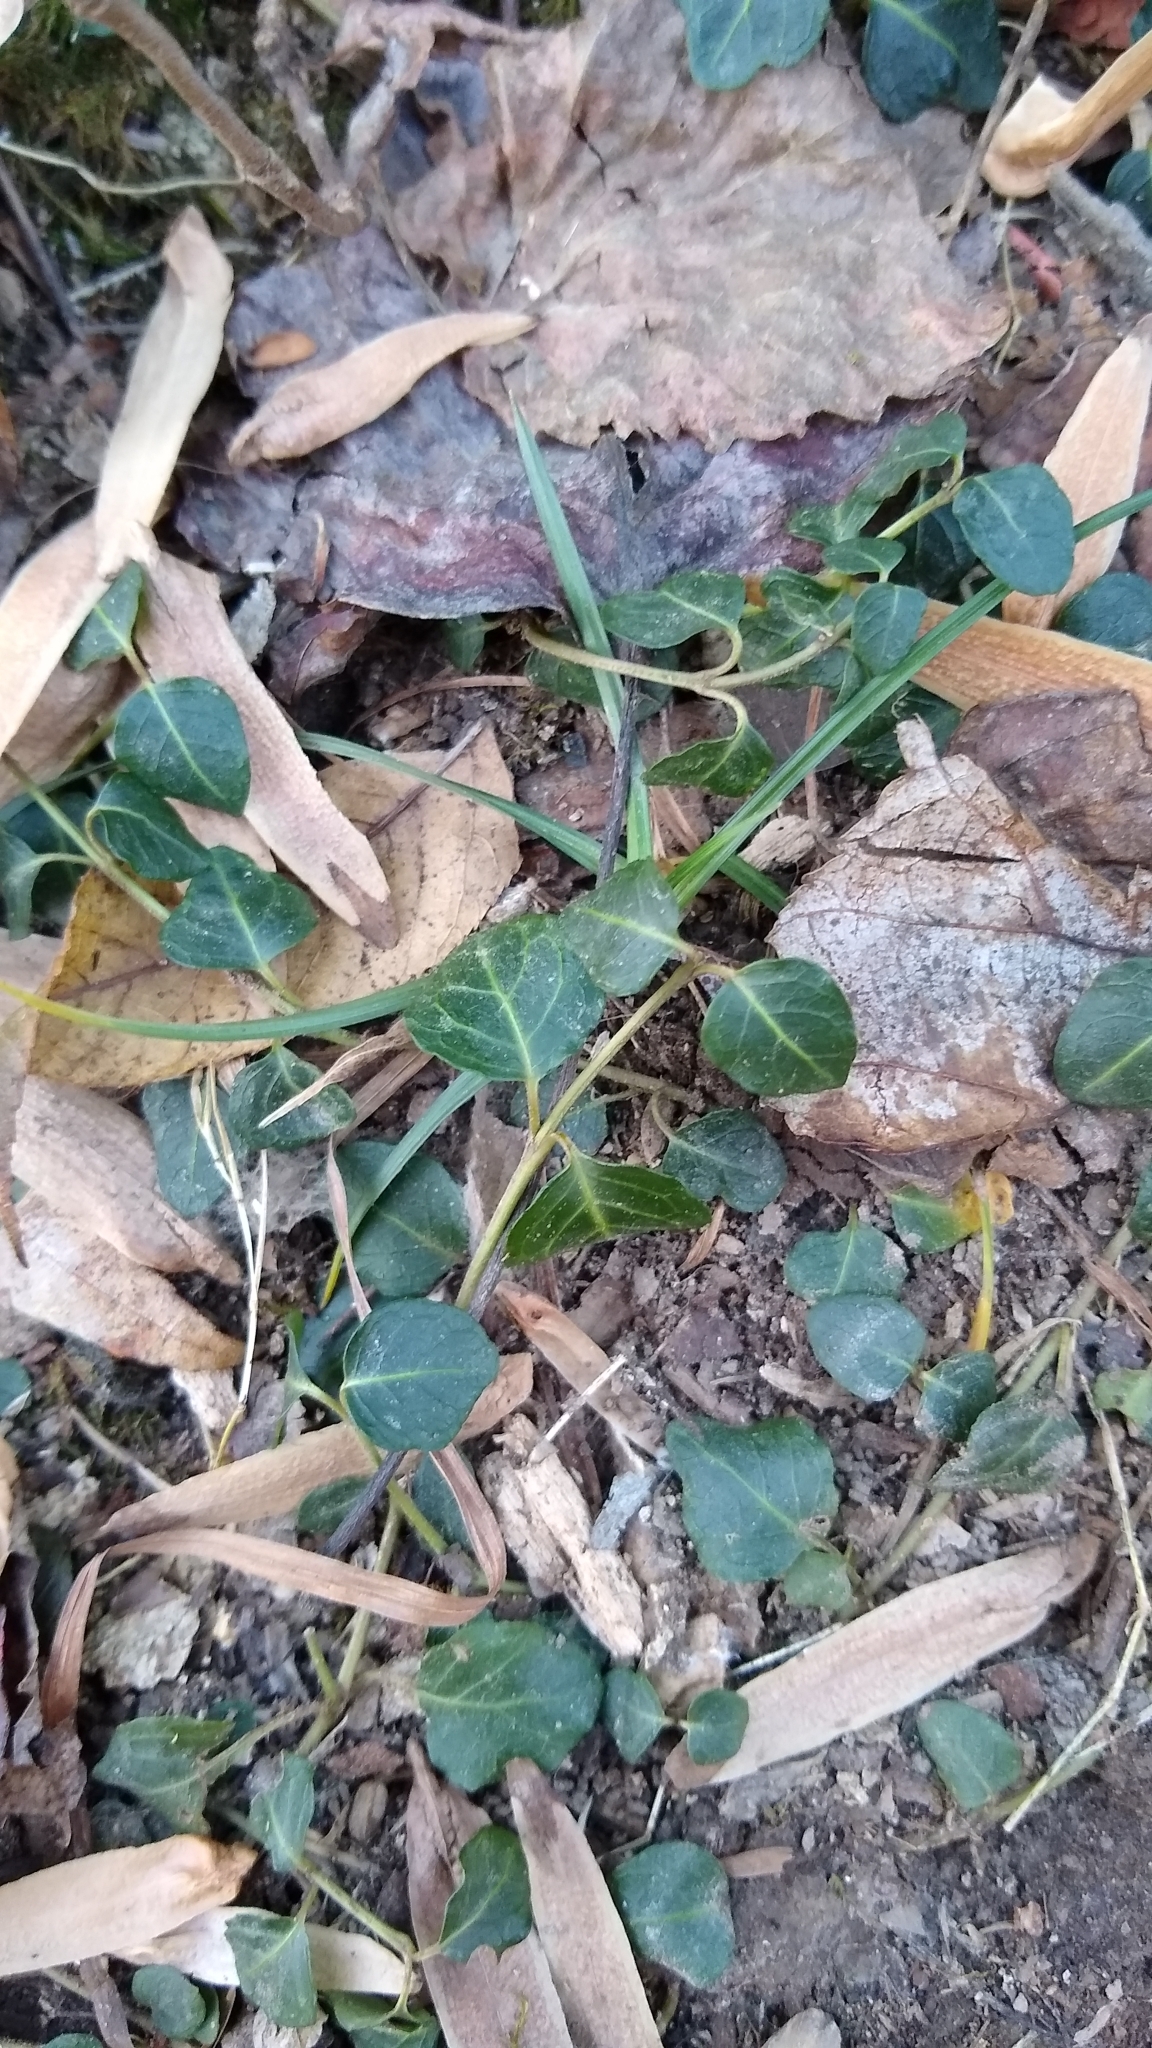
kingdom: Plantae
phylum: Tracheophyta
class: Magnoliopsida
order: Gentianales
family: Rubiaceae
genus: Mitchella
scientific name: Mitchella repens
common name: Partridge-berry
